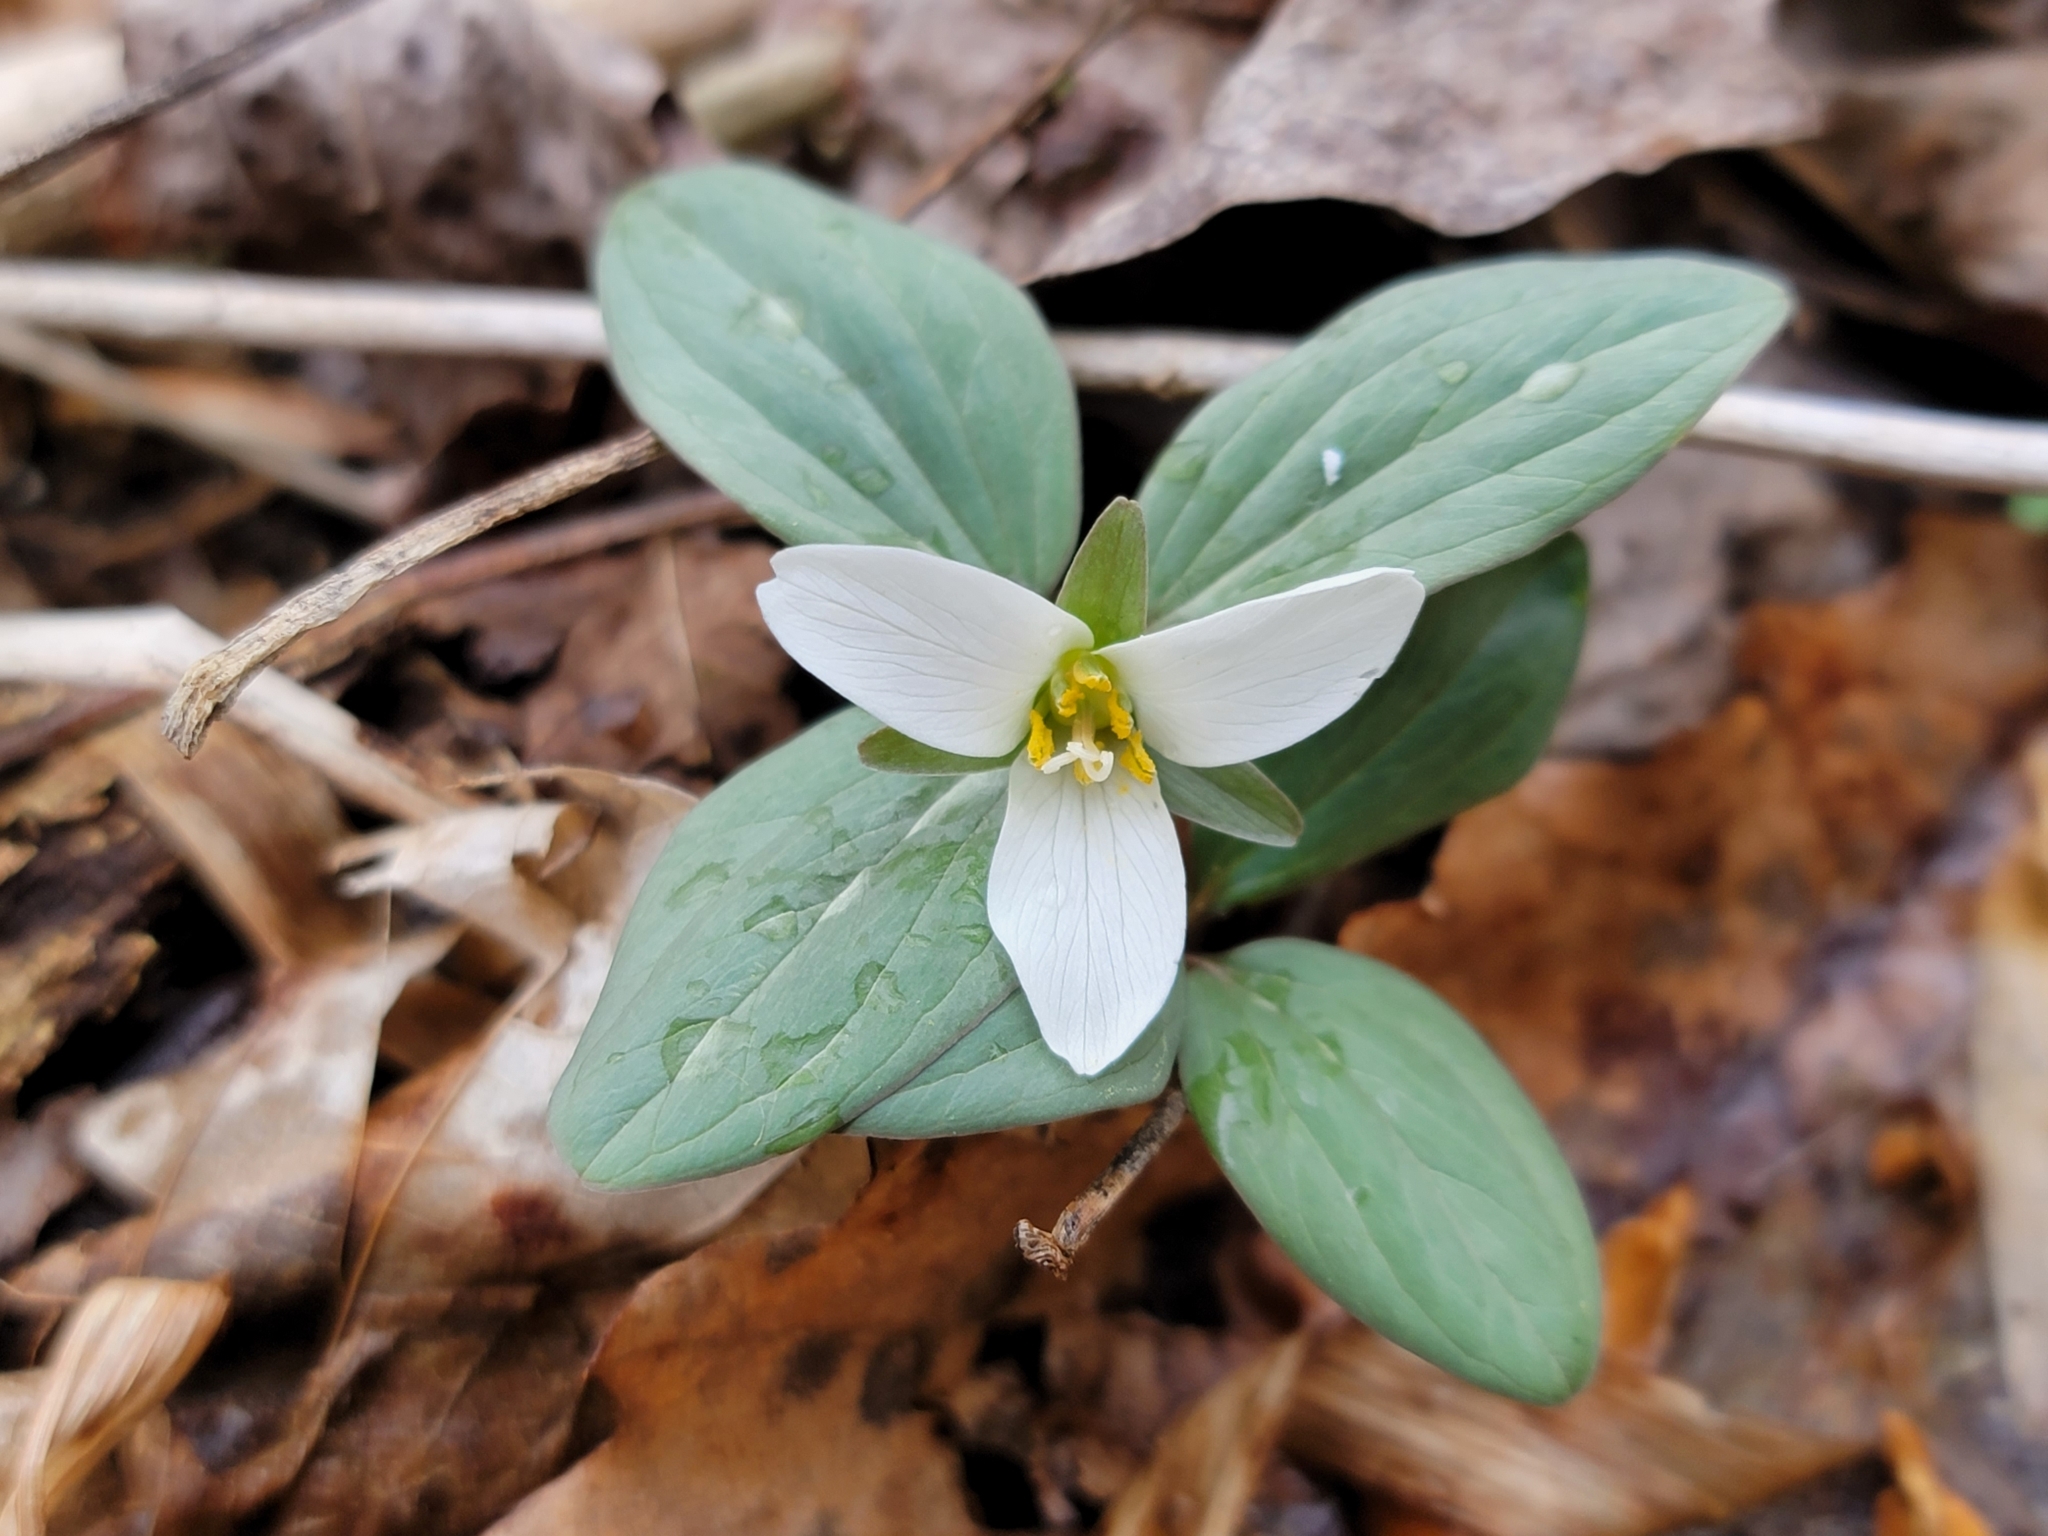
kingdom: Plantae
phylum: Tracheophyta
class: Liliopsida
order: Liliales
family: Melanthiaceae
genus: Trillium
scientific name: Trillium nivale
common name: Dwarf white trillium
